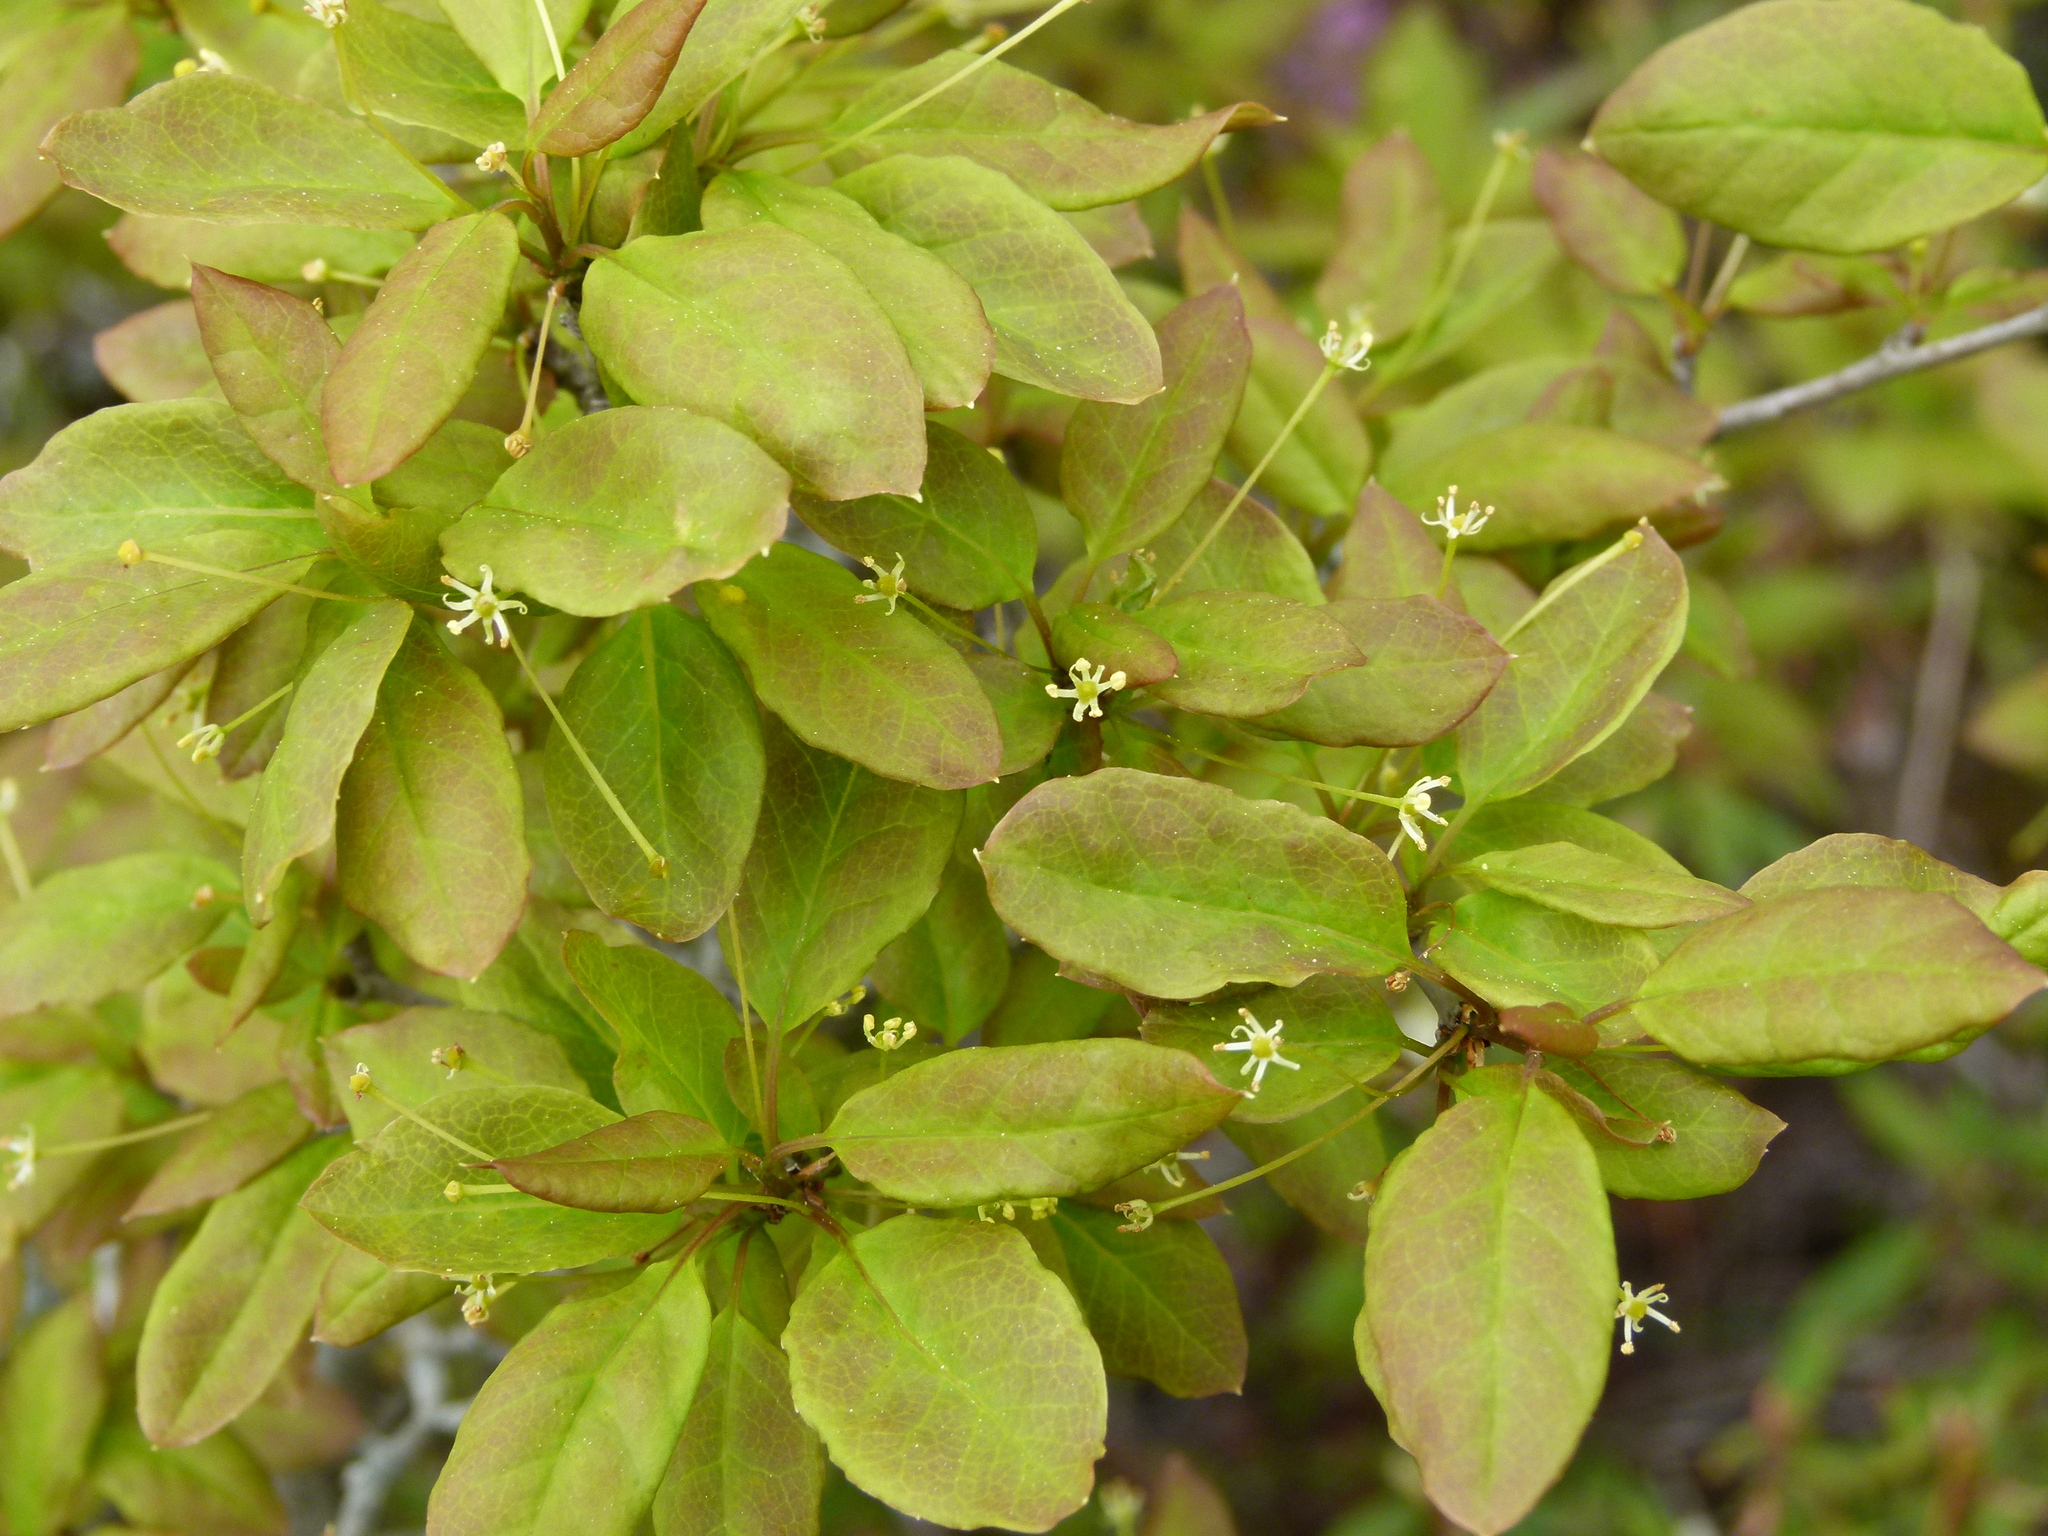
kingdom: Plantae
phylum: Tracheophyta
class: Magnoliopsida
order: Aquifoliales
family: Aquifoliaceae
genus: Ilex
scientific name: Ilex mucronata
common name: Catberry
